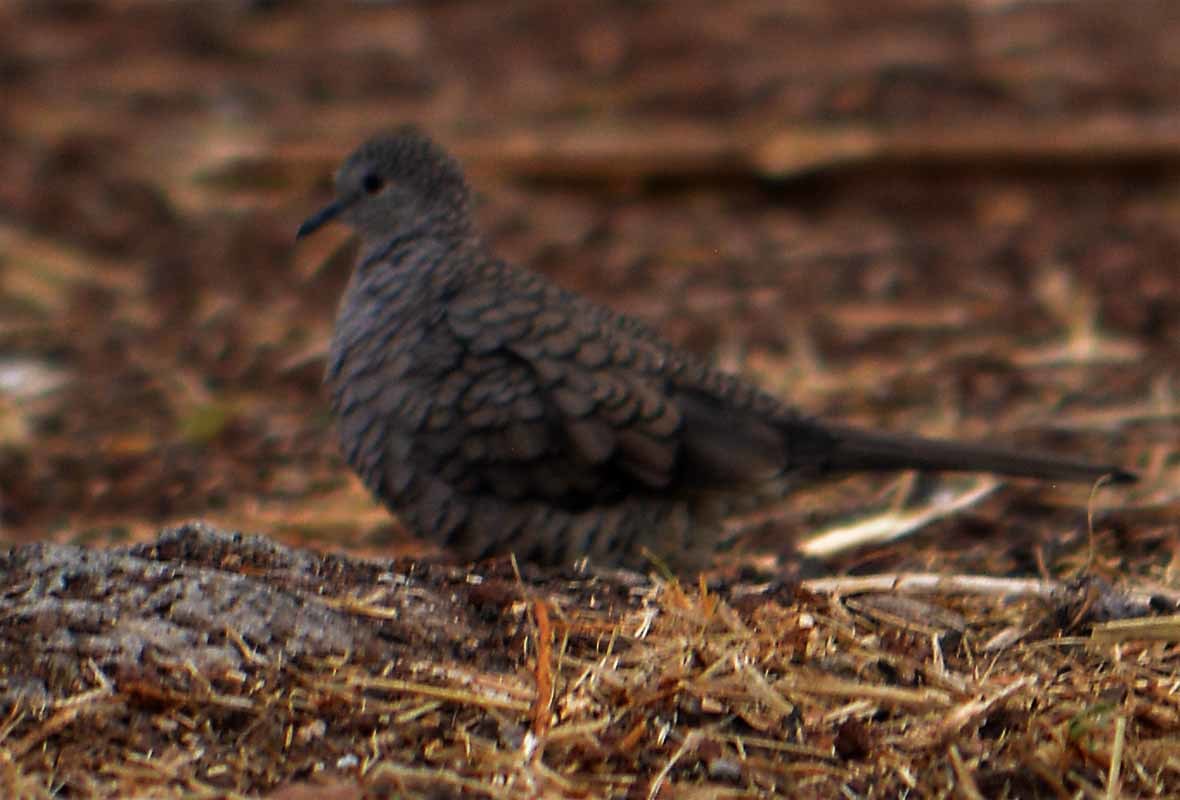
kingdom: Animalia
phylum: Chordata
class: Aves
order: Columbiformes
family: Columbidae
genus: Columbina
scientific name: Columbina inca
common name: Inca dove
